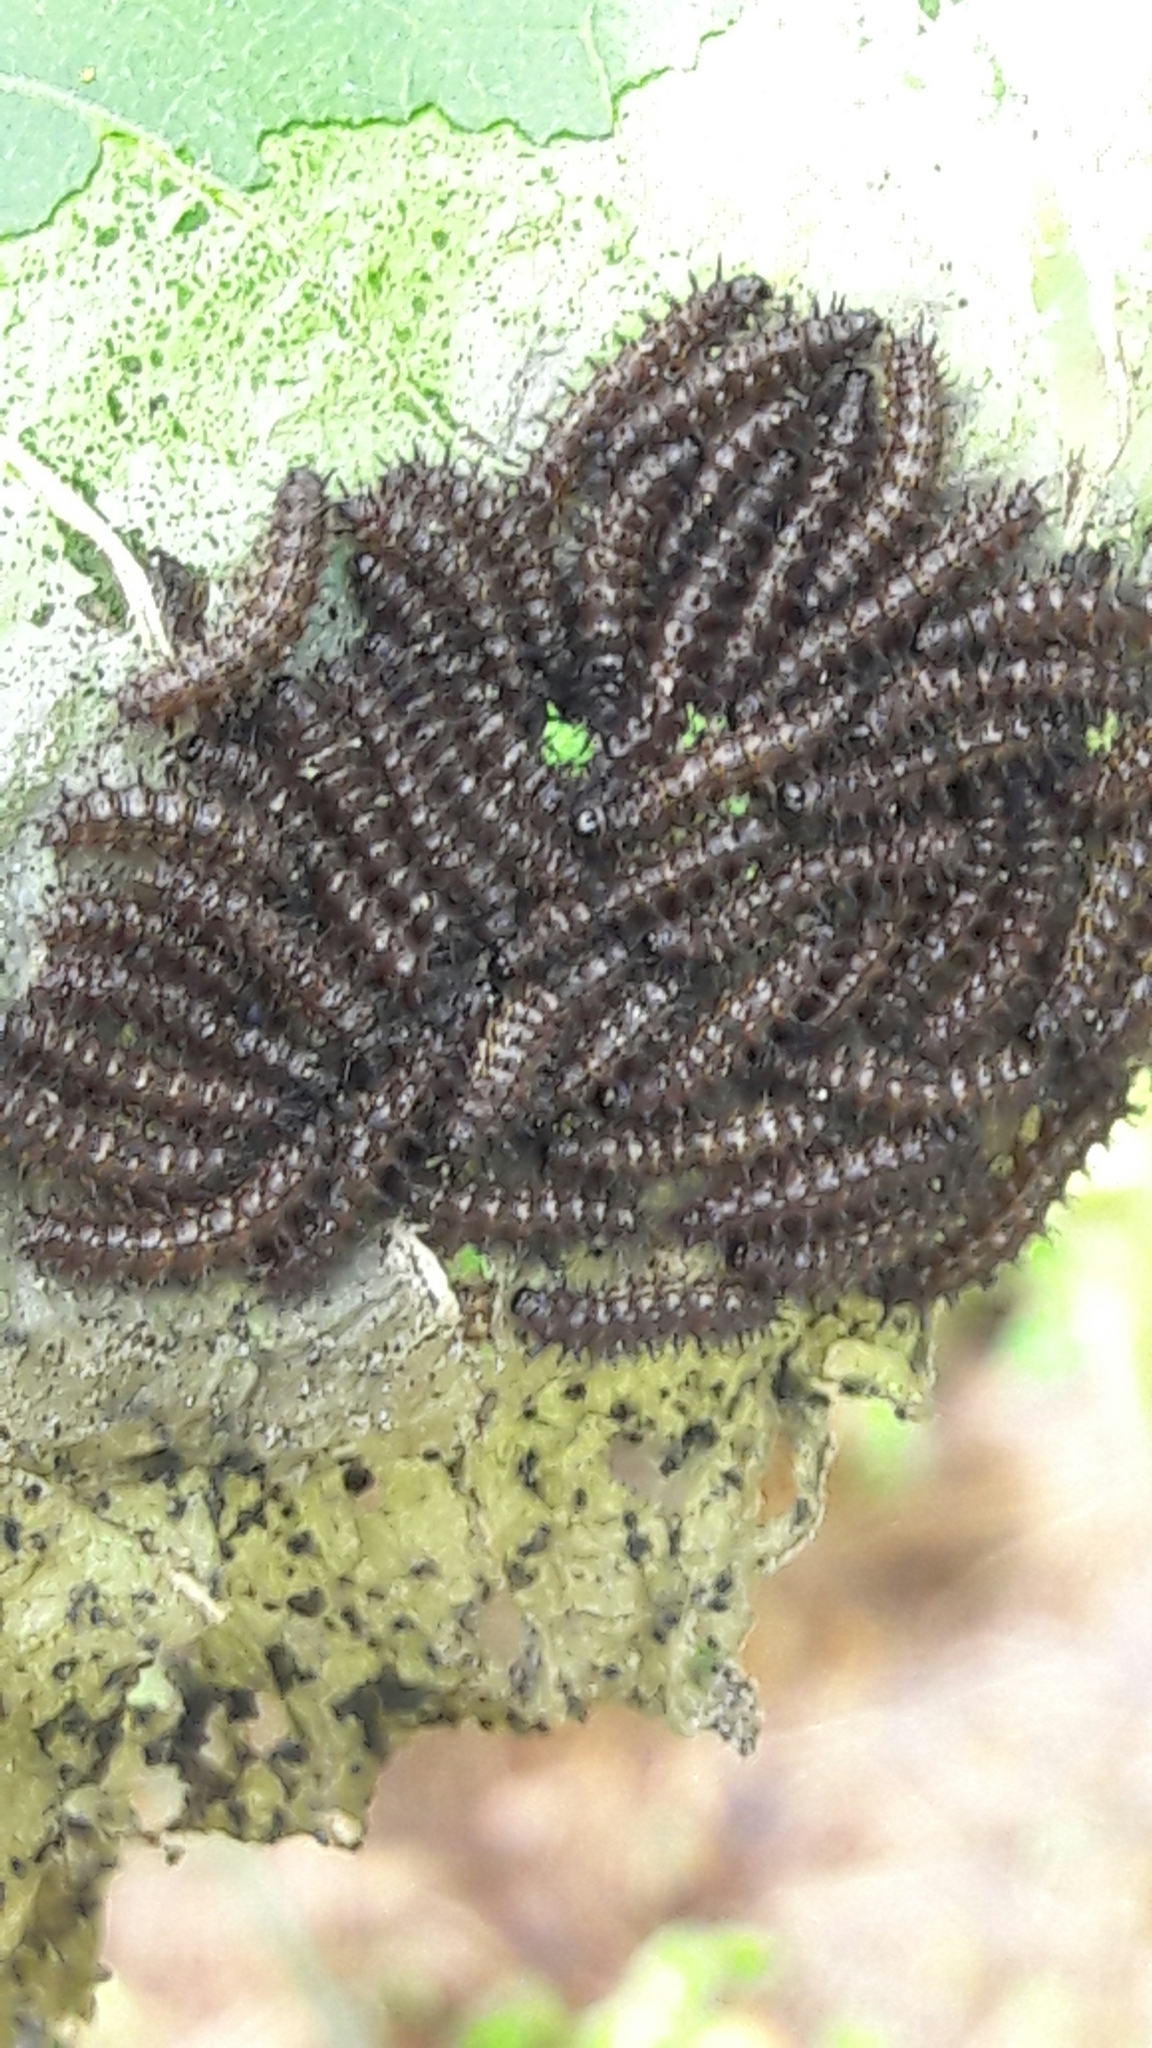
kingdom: Animalia
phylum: Arthropoda
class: Insecta
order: Lepidoptera
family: Nymphalidae
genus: Chlosyne
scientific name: Chlosyne lacinia
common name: Bordered patch
